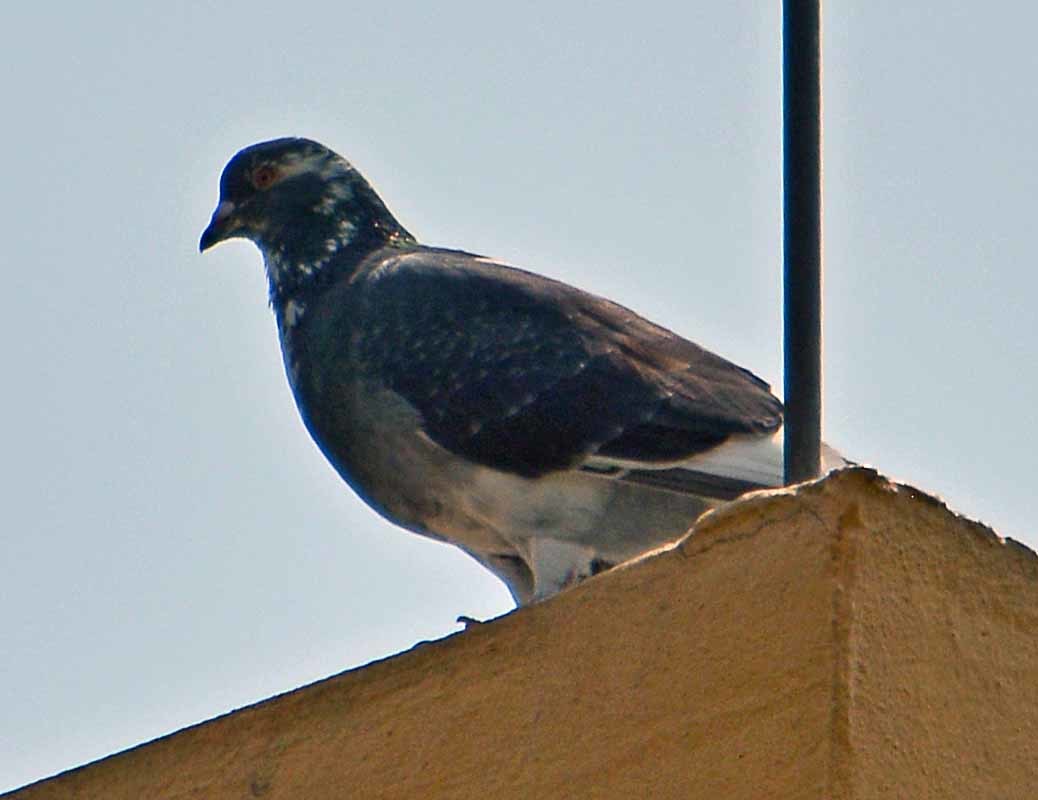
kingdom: Animalia
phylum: Chordata
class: Aves
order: Columbiformes
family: Columbidae
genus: Columba
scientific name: Columba livia
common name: Rock pigeon
